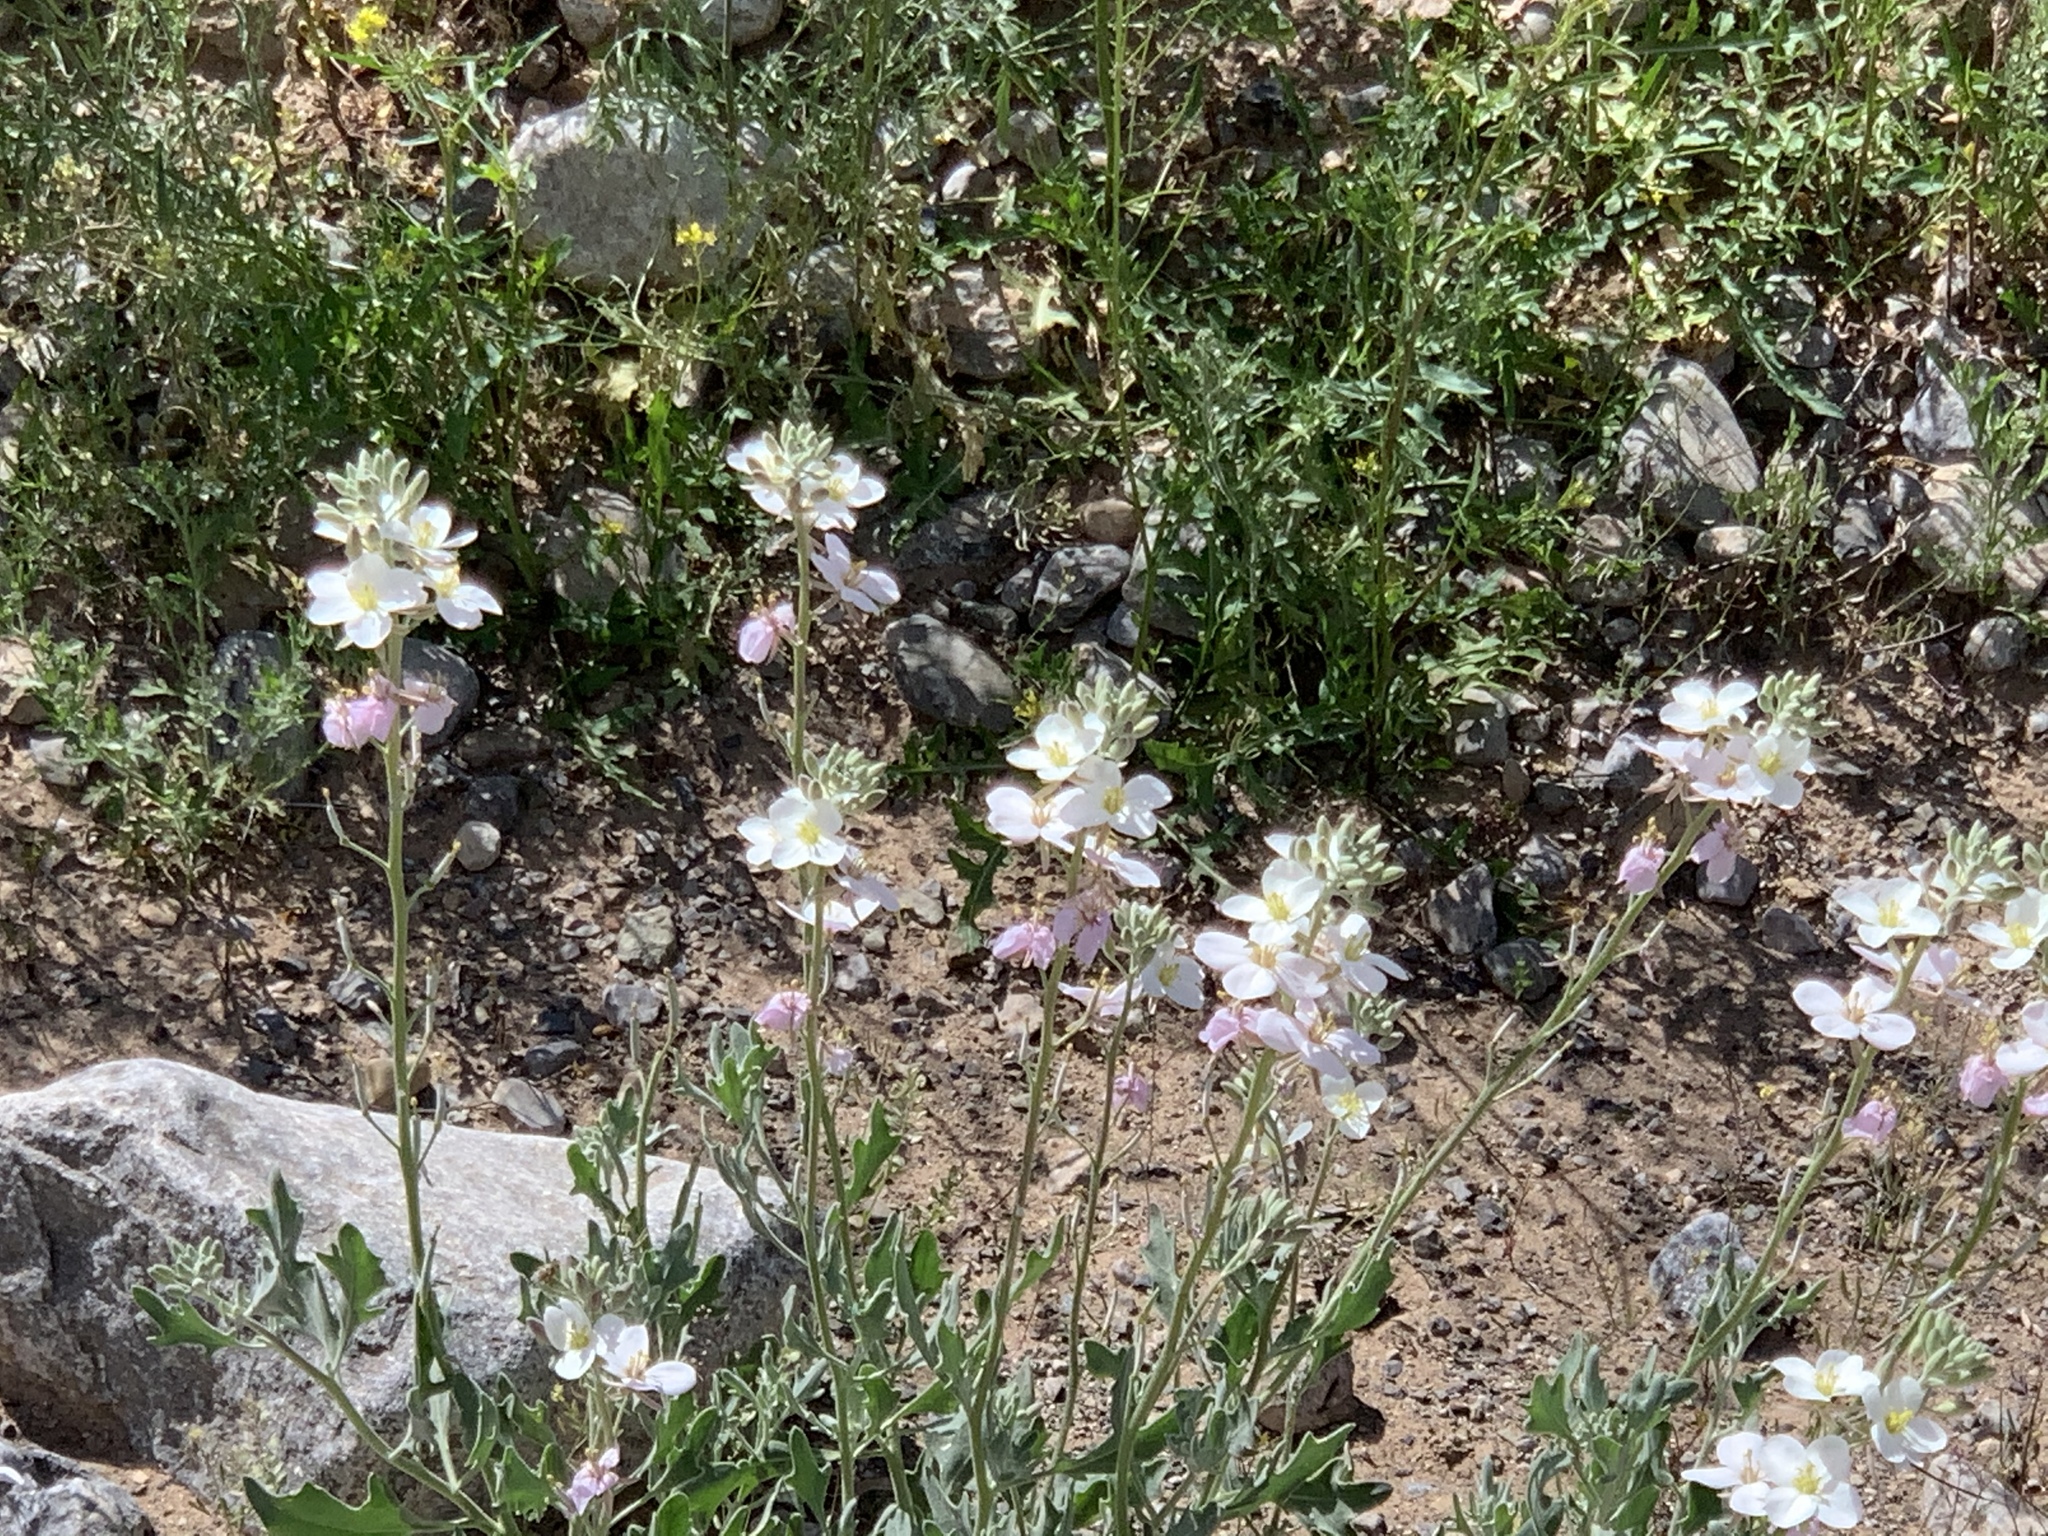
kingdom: Plantae
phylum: Tracheophyta
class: Magnoliopsida
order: Brassicales
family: Brassicaceae
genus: Nerisyrenia
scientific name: Nerisyrenia camporum
